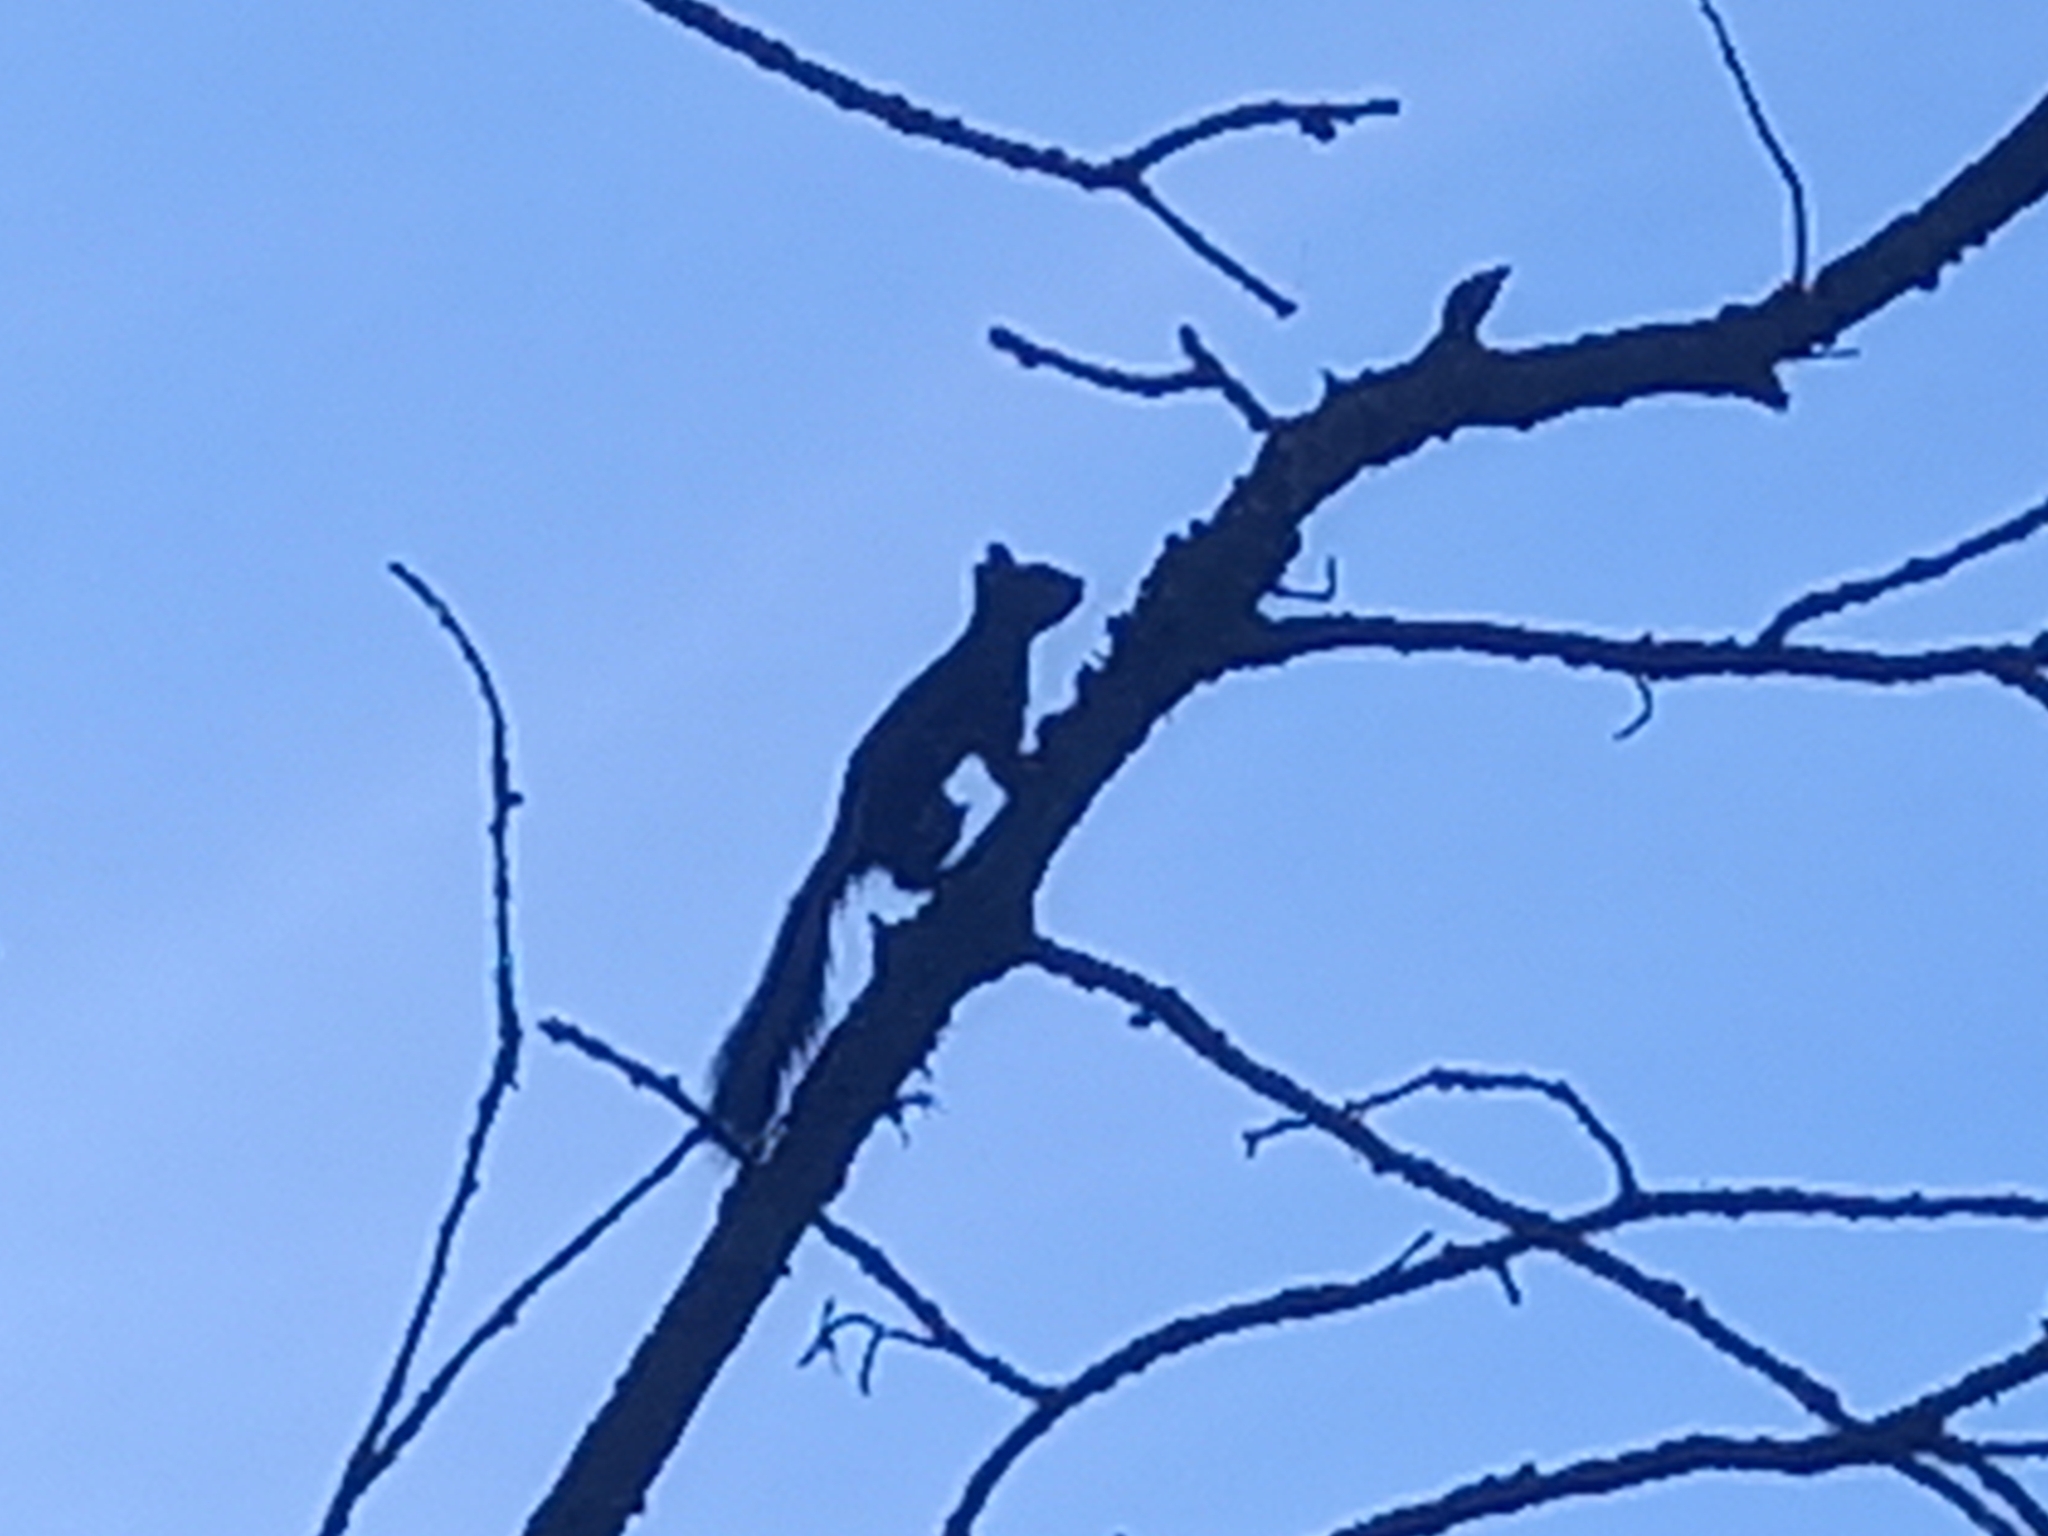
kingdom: Animalia
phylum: Chordata
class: Mammalia
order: Rodentia
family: Sciuridae
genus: Sciurus
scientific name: Sciurus vulgaris
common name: Eurasian red squirrel
